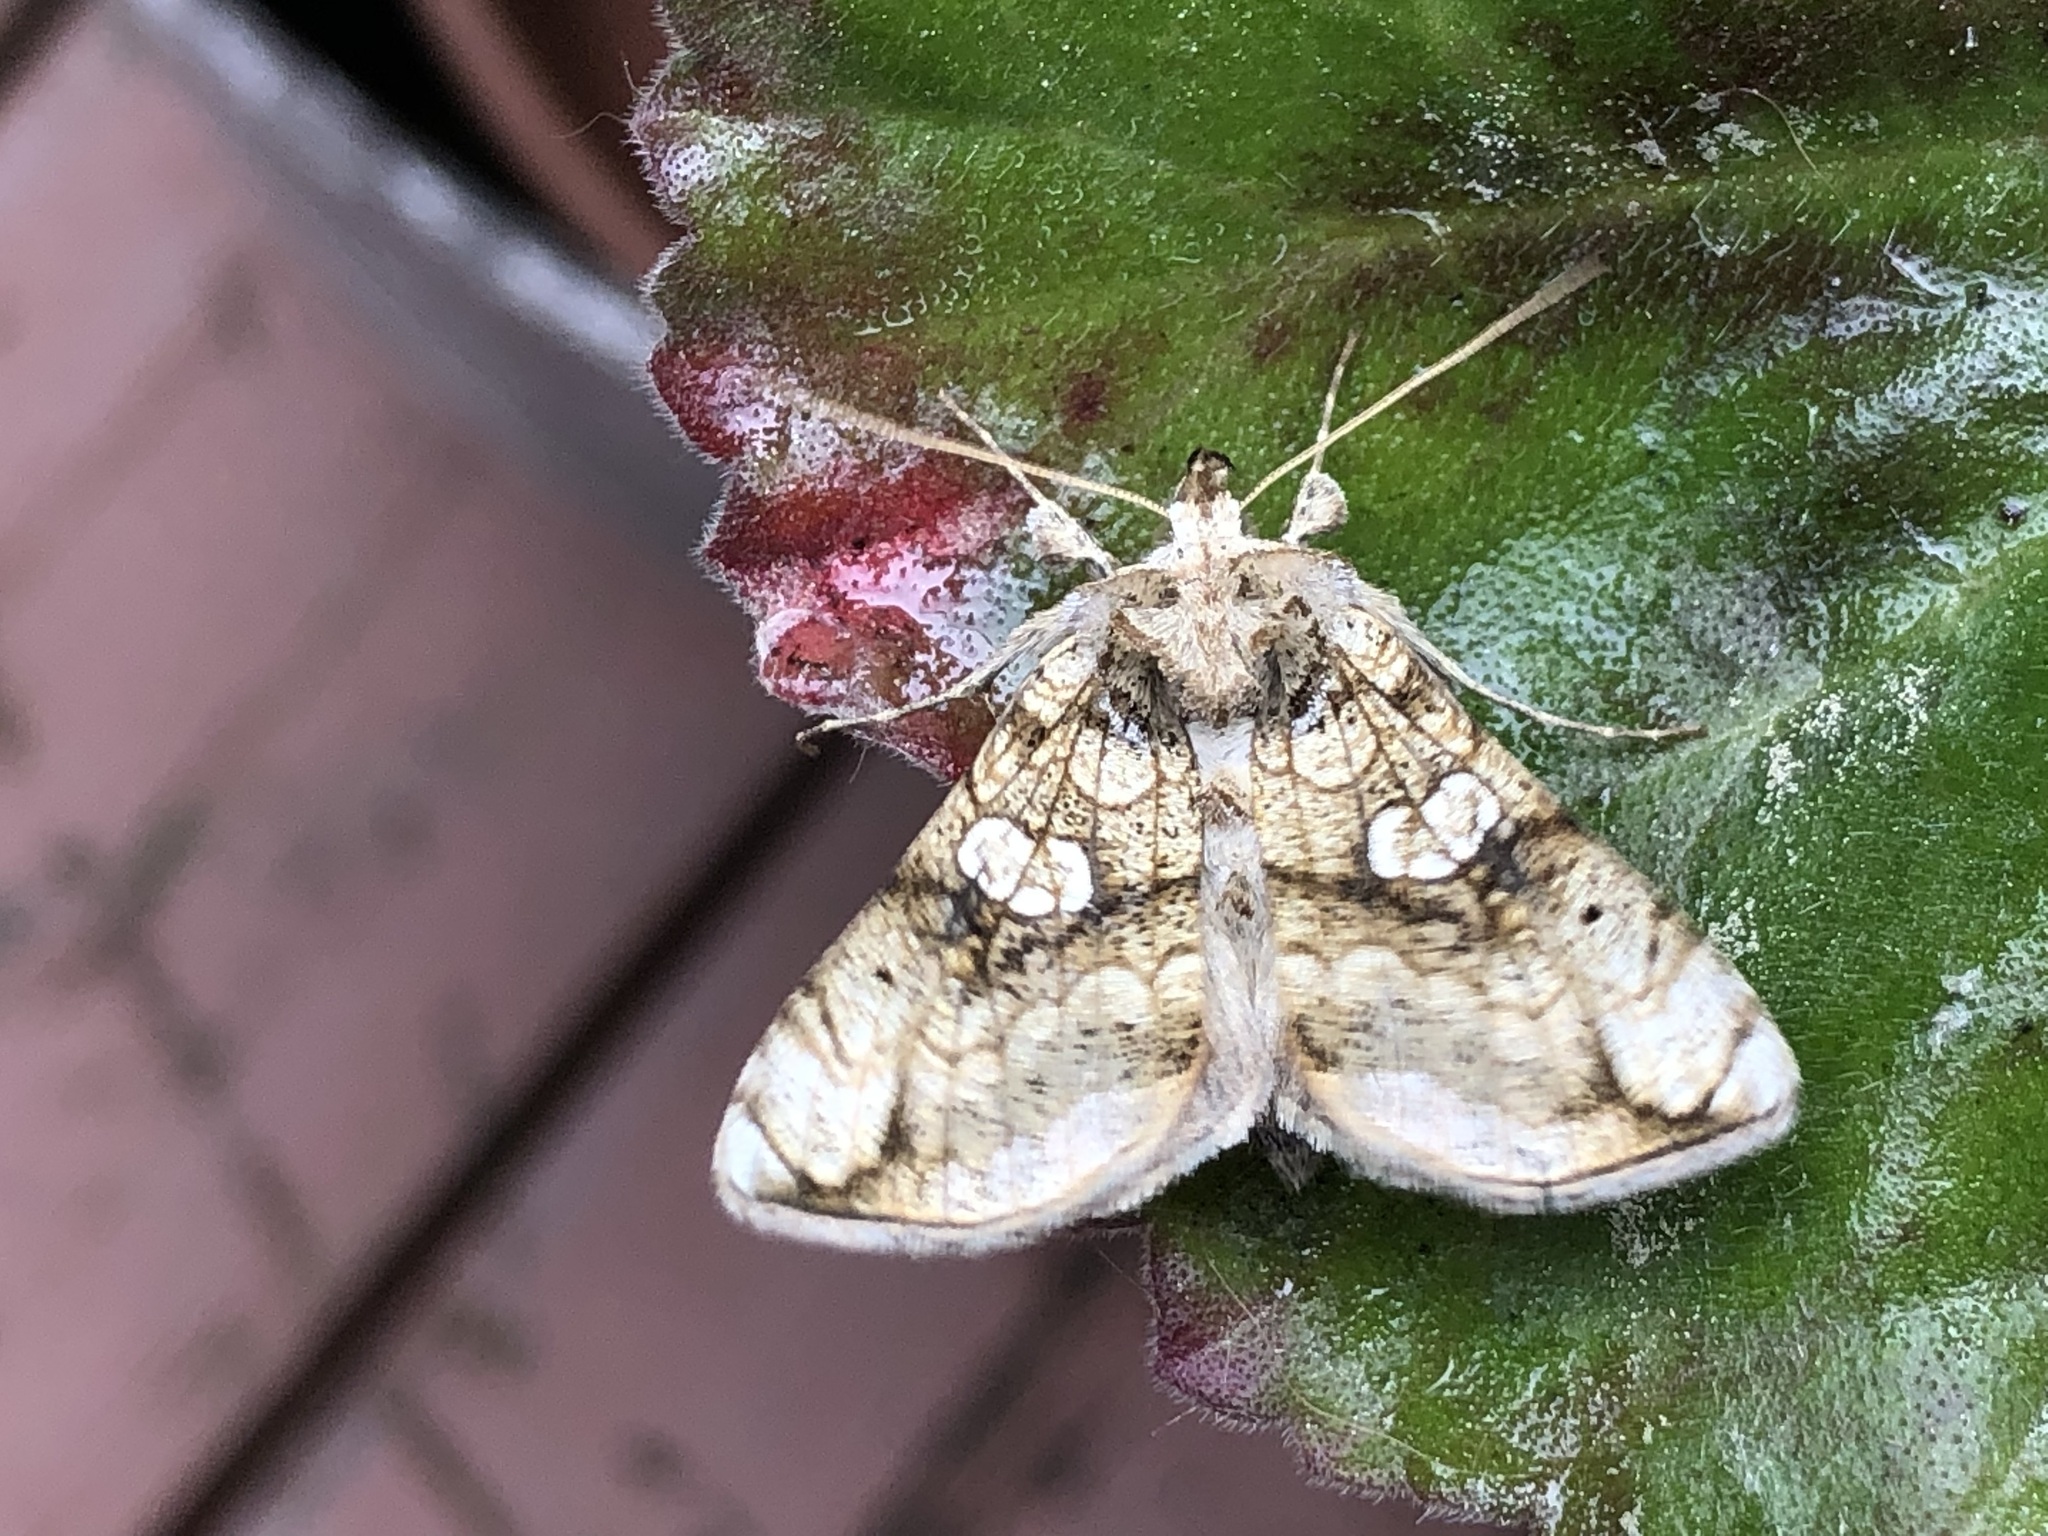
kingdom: Animalia
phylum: Arthropoda
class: Insecta
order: Lepidoptera
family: Noctuidae
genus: Polychrysia
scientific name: Polychrysia esmeralda
